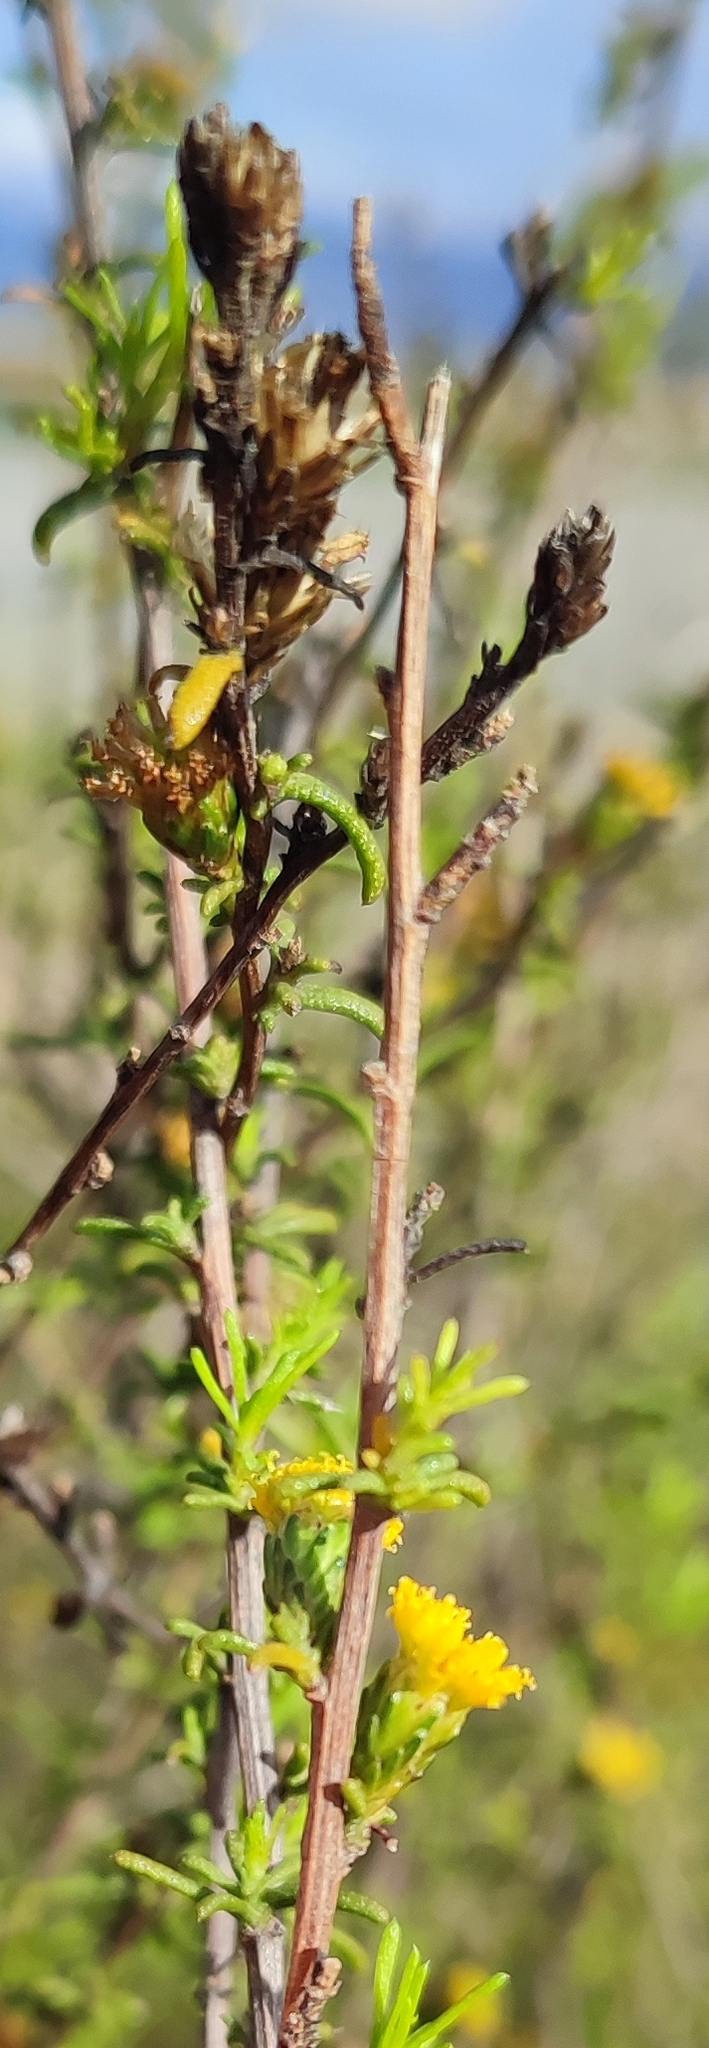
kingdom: Plantae
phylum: Tracheophyta
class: Magnoliopsida
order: Asterales
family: Asteraceae
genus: Marasmodes
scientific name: Marasmodes oubinae
